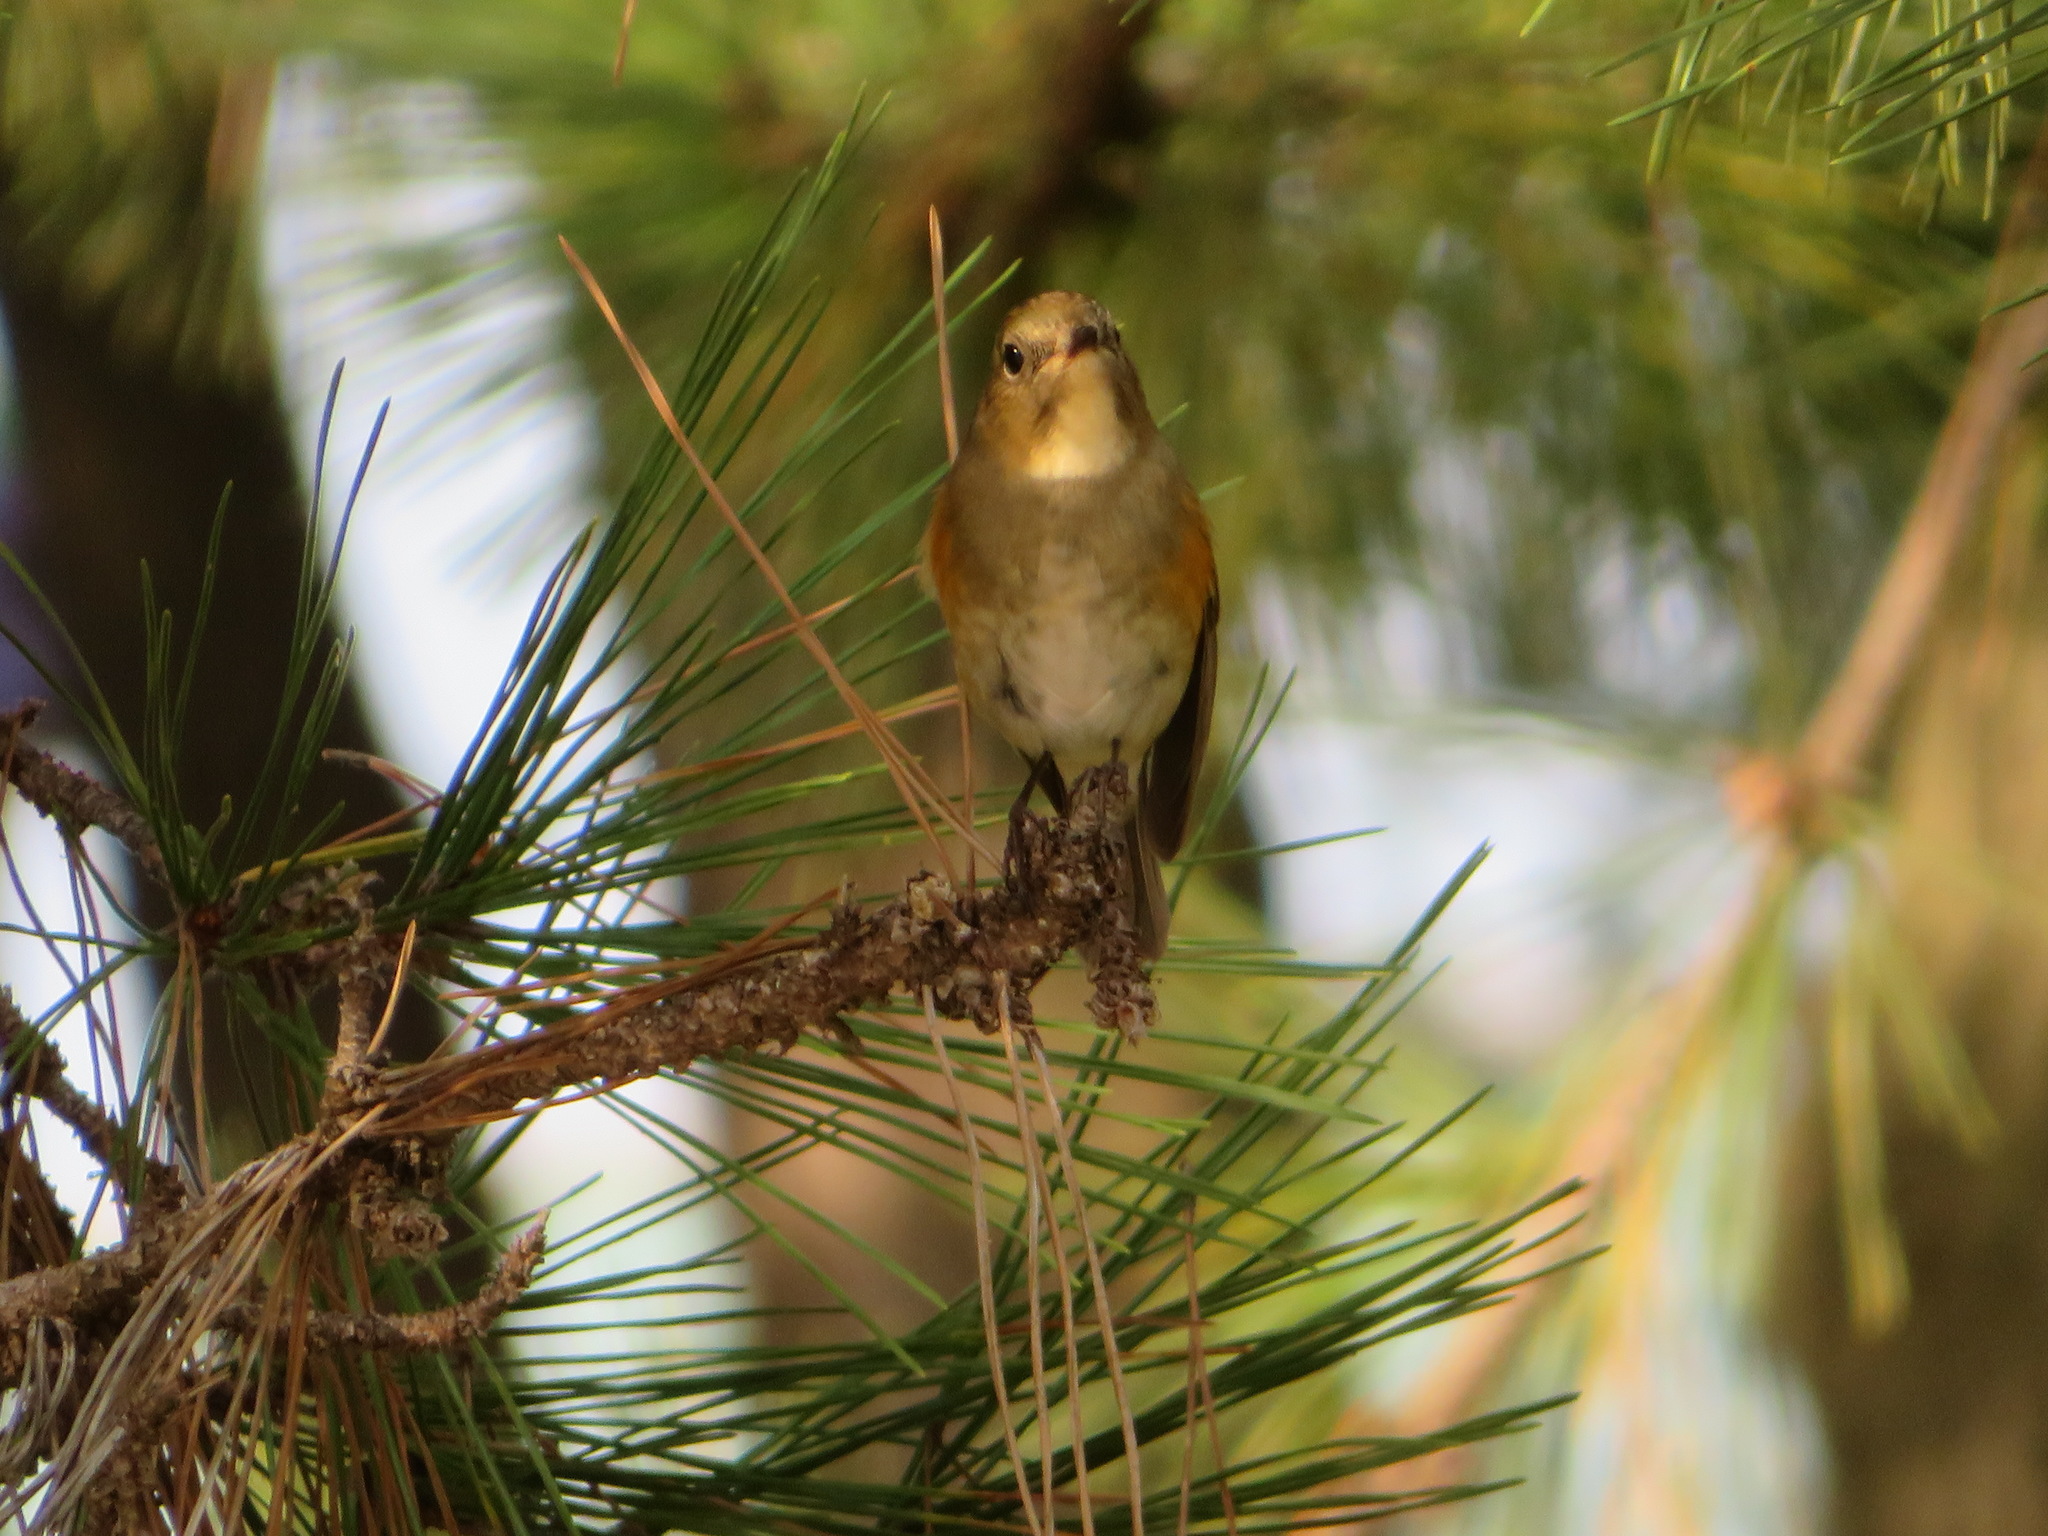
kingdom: Animalia
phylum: Chordata
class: Aves
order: Passeriformes
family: Muscicapidae
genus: Tarsiger
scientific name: Tarsiger cyanurus
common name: Red-flanked bluetail
